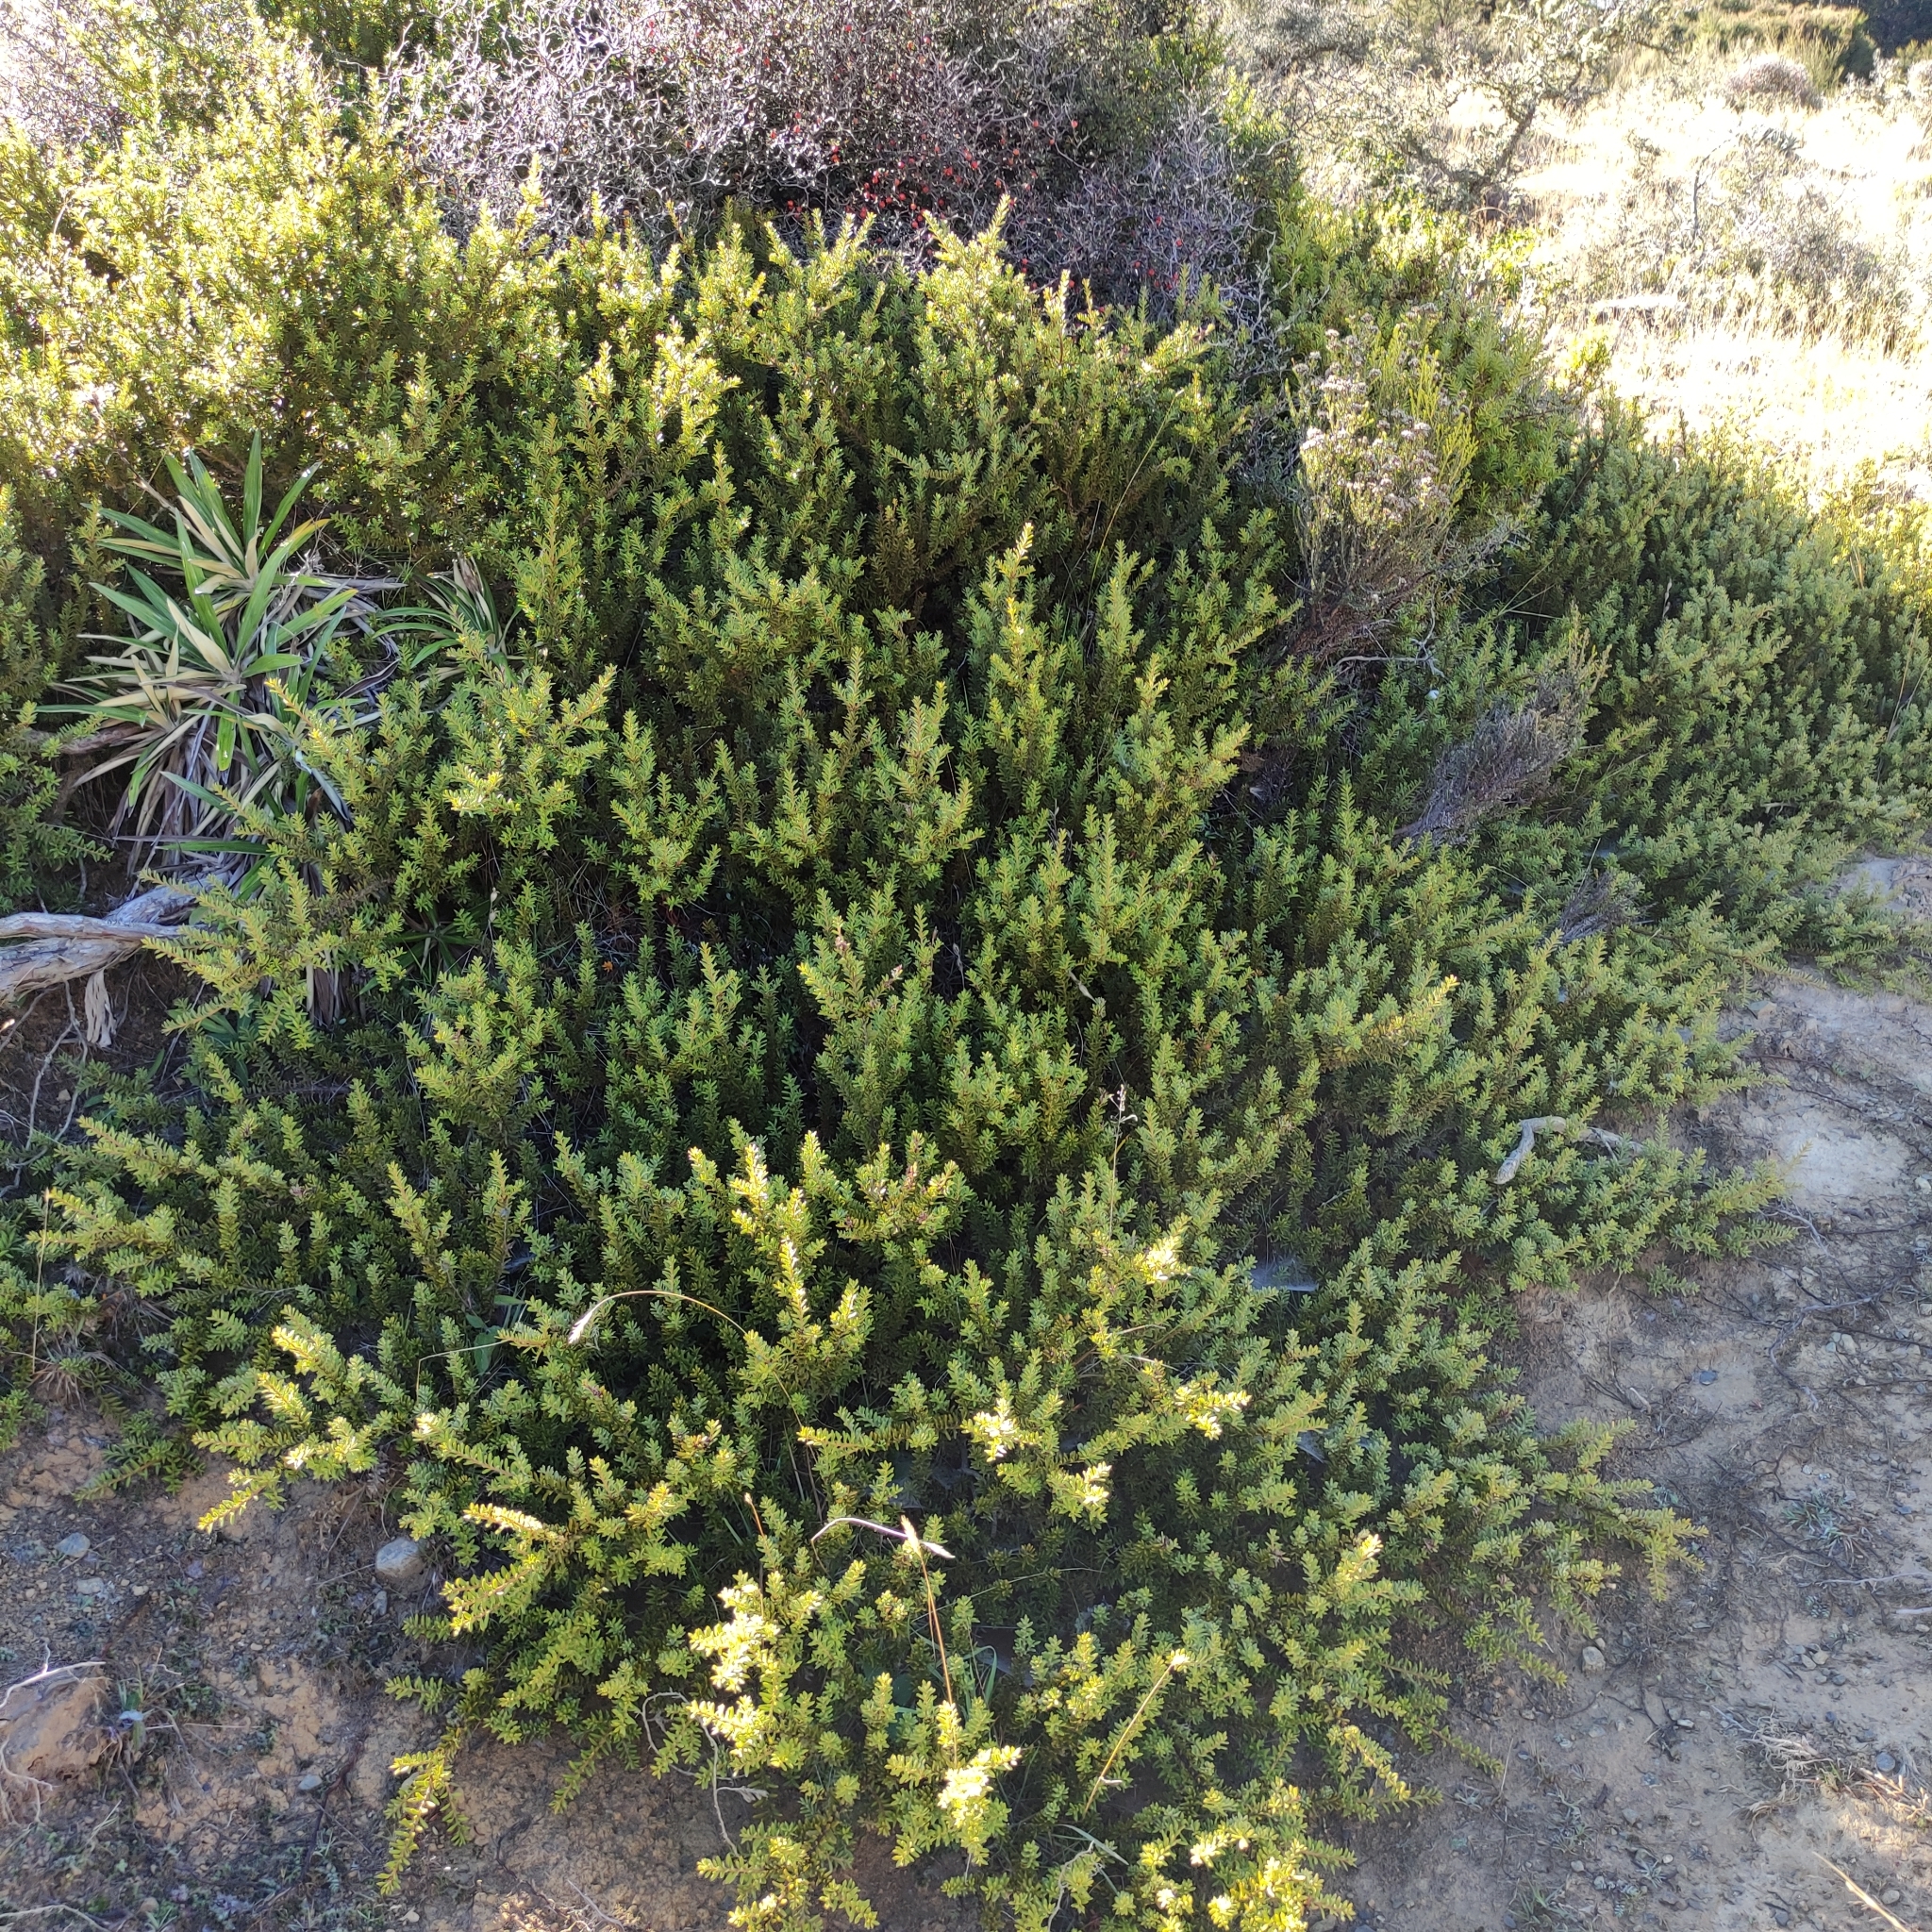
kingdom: Plantae
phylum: Tracheophyta
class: Pinopsida
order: Pinales
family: Podocarpaceae
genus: Podocarpus
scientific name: Podocarpus nivalis
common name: Alpine totara
